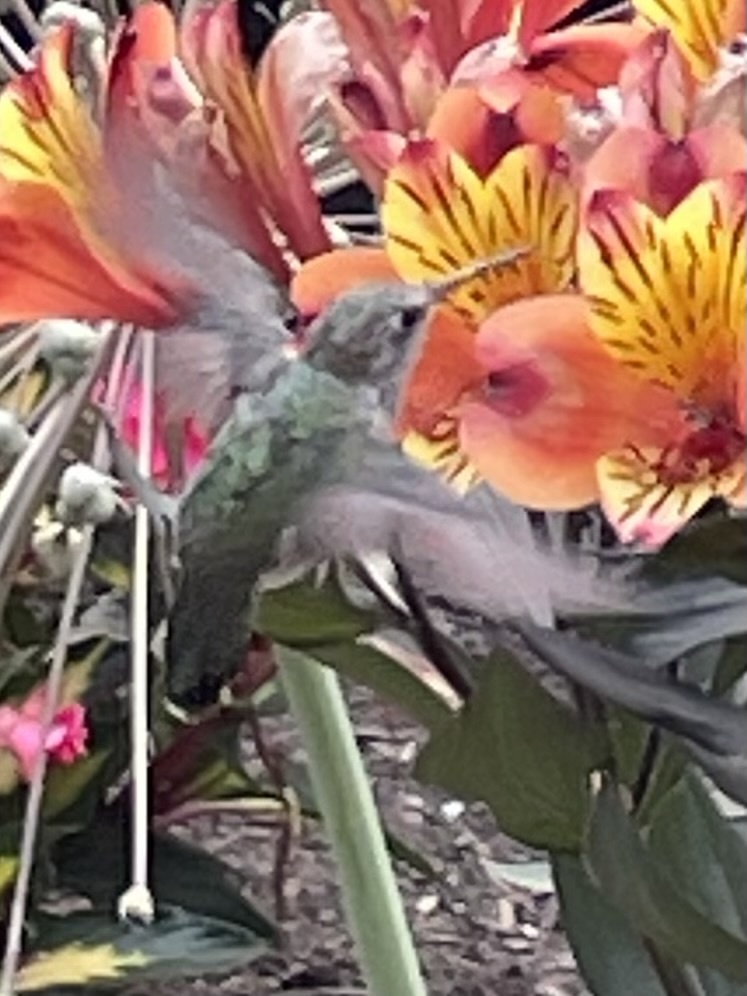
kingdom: Animalia
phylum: Chordata
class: Aves
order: Apodiformes
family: Trochilidae
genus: Calypte
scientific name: Calypte anna
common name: Anna's hummingbird
